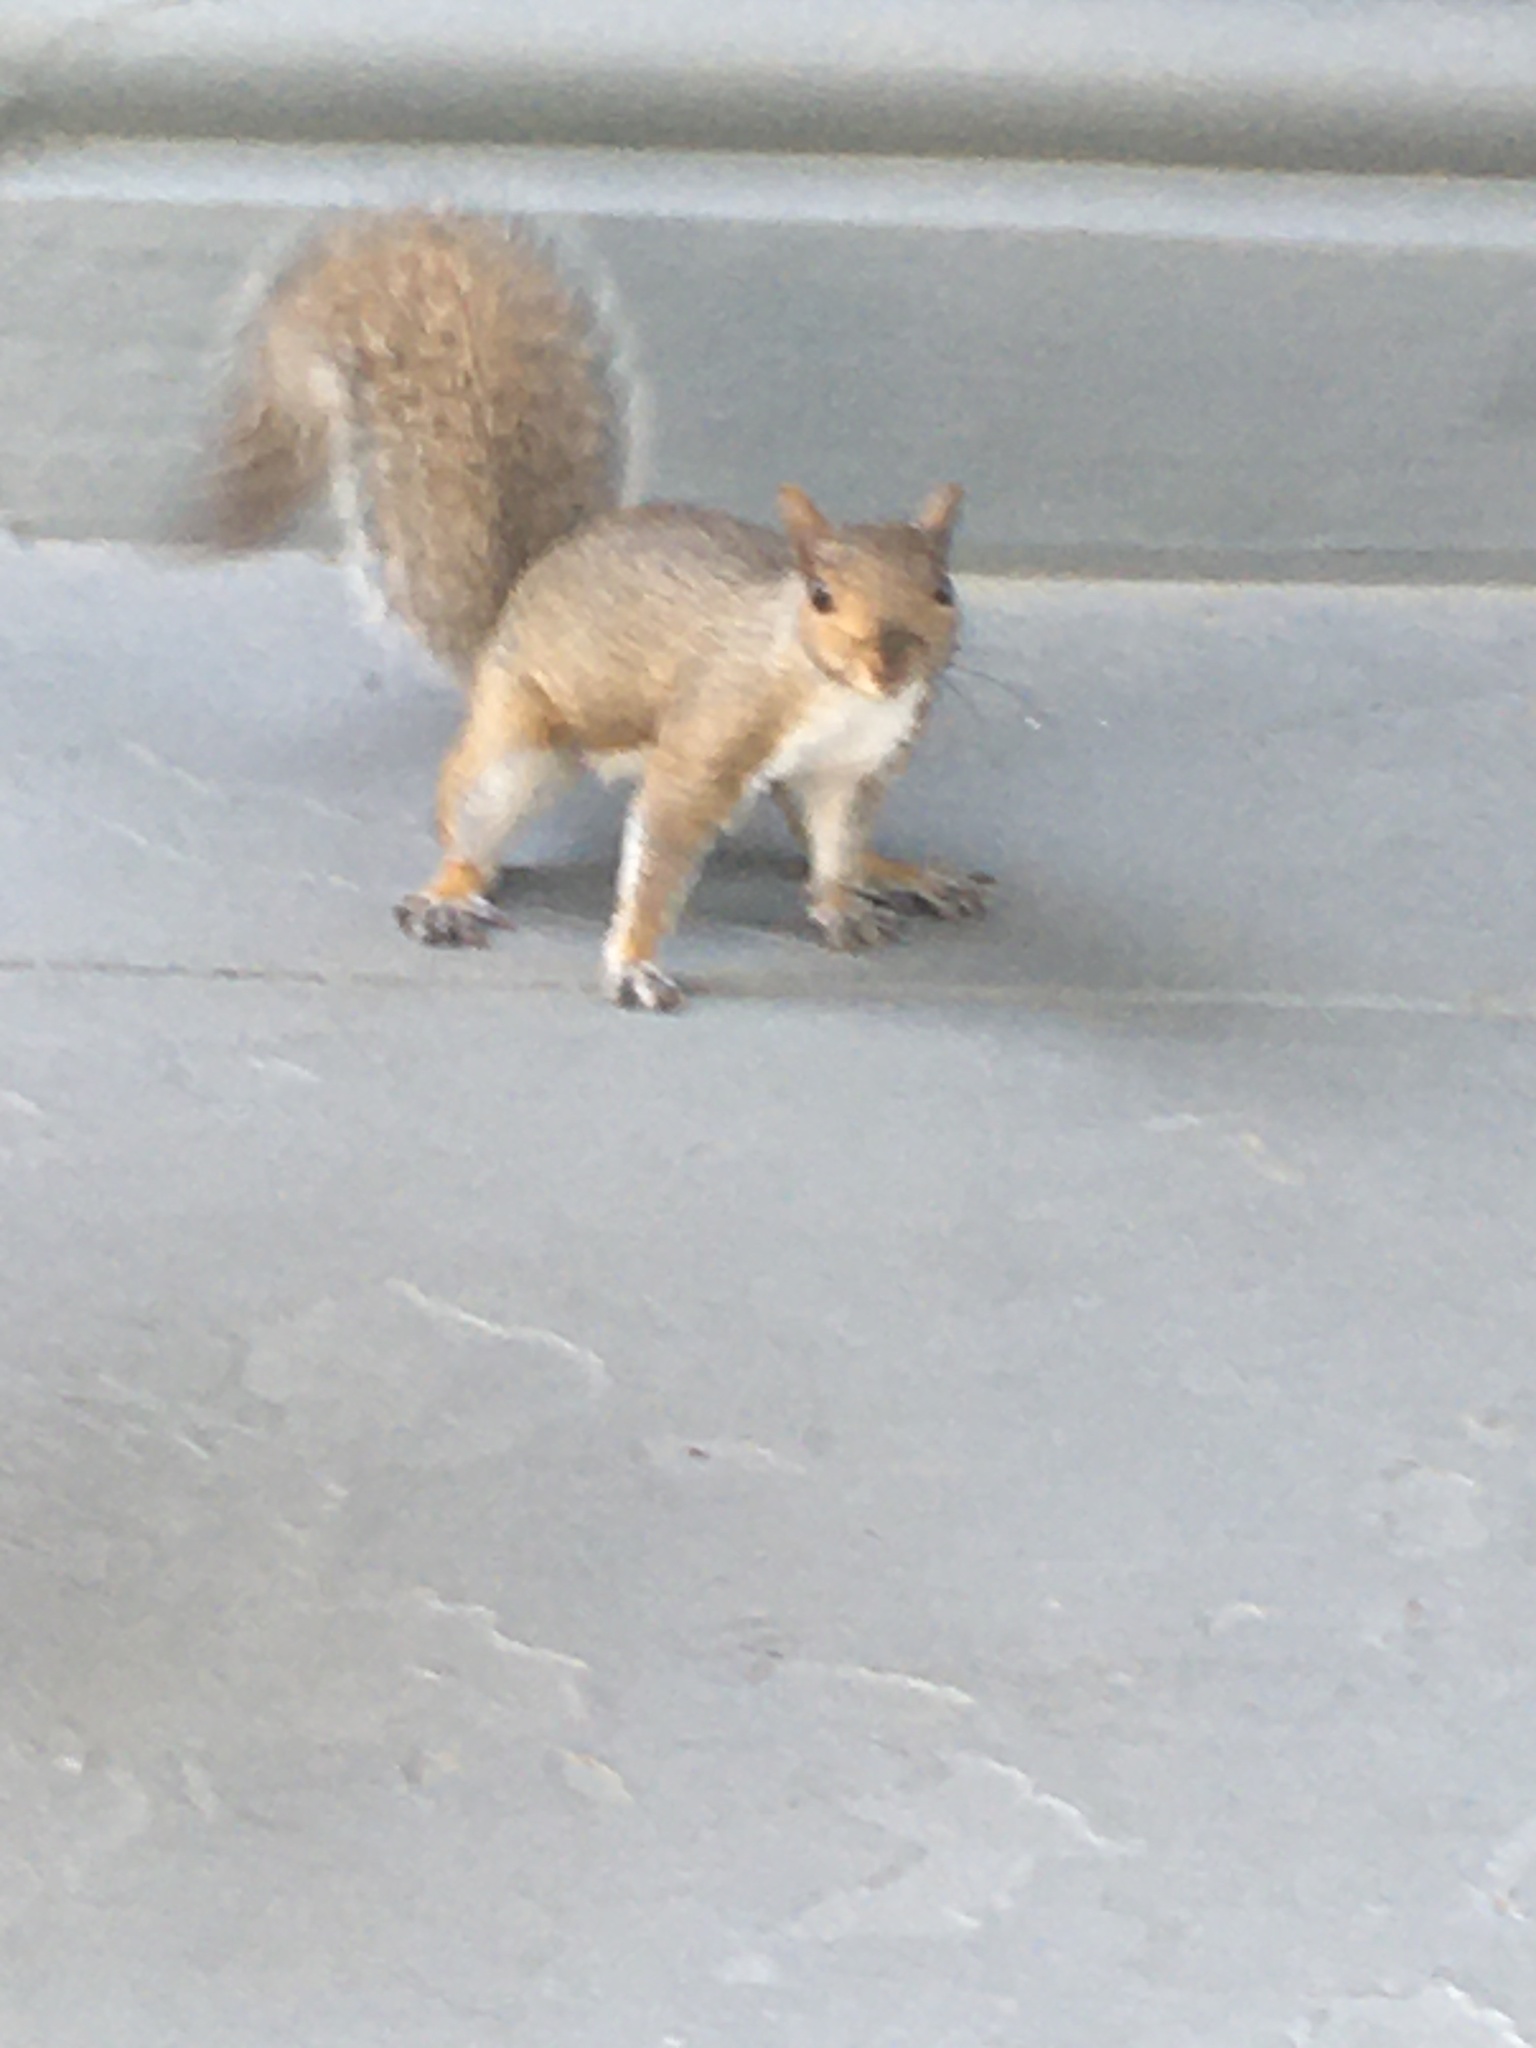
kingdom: Animalia
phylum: Chordata
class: Mammalia
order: Rodentia
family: Sciuridae
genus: Sciurus
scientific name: Sciurus carolinensis
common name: Eastern gray squirrel
